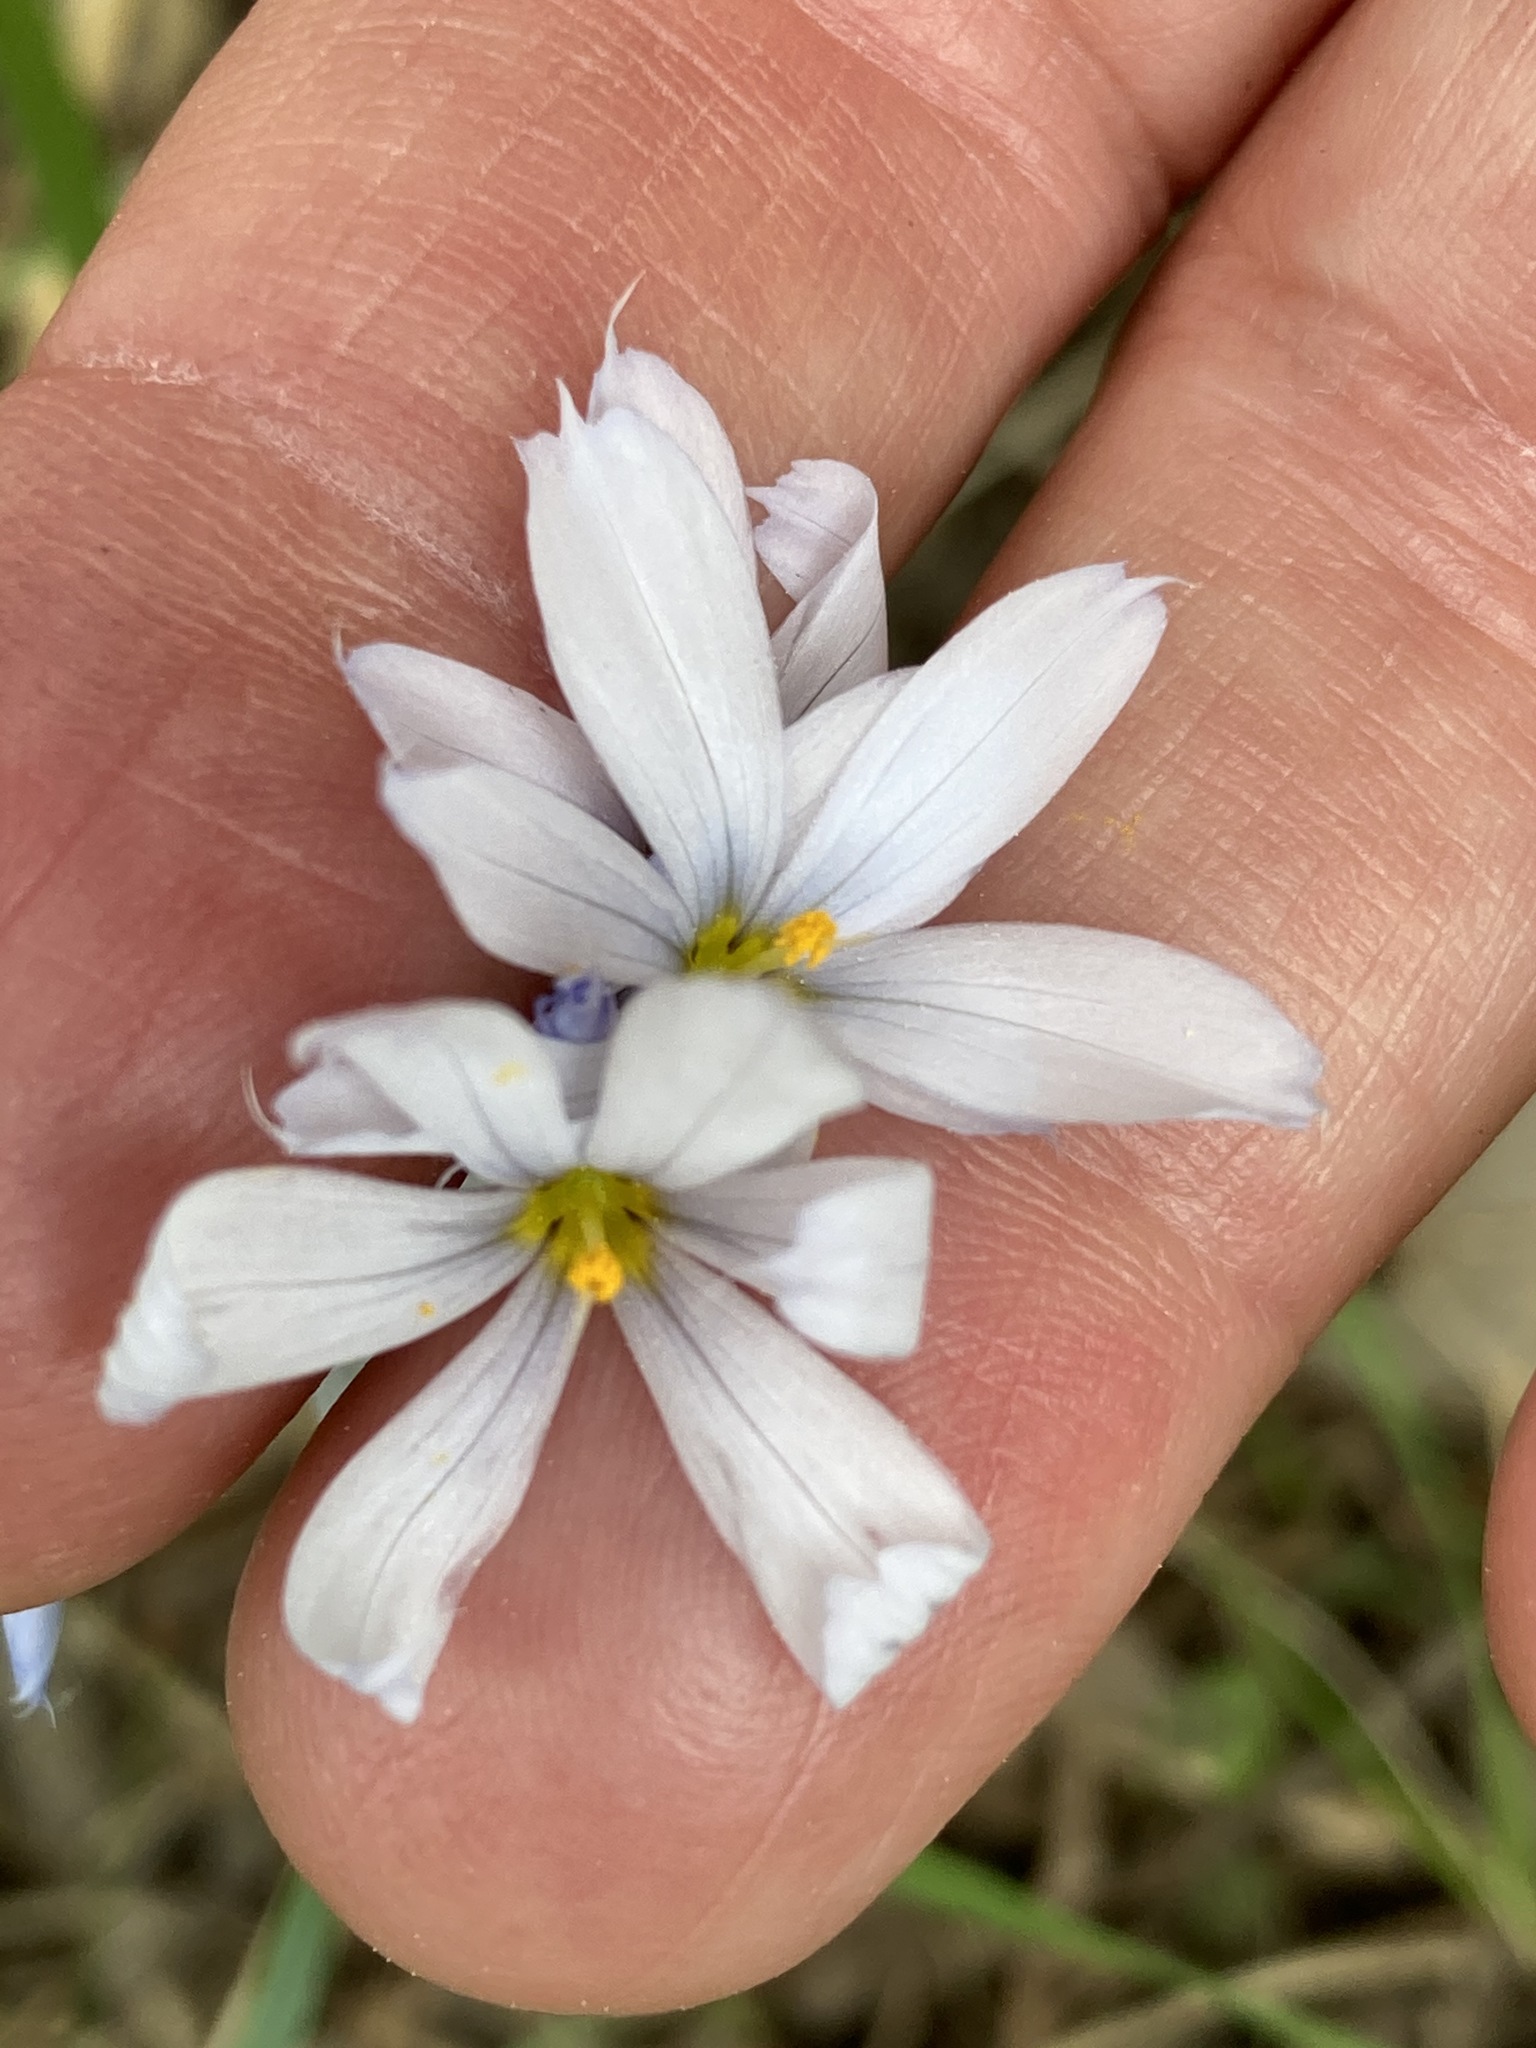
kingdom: Plantae
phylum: Tracheophyta
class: Liliopsida
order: Asparagales
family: Iridaceae
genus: Sisyrinchium
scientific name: Sisyrinchium albidum
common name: Pale blue-eyed-grass
